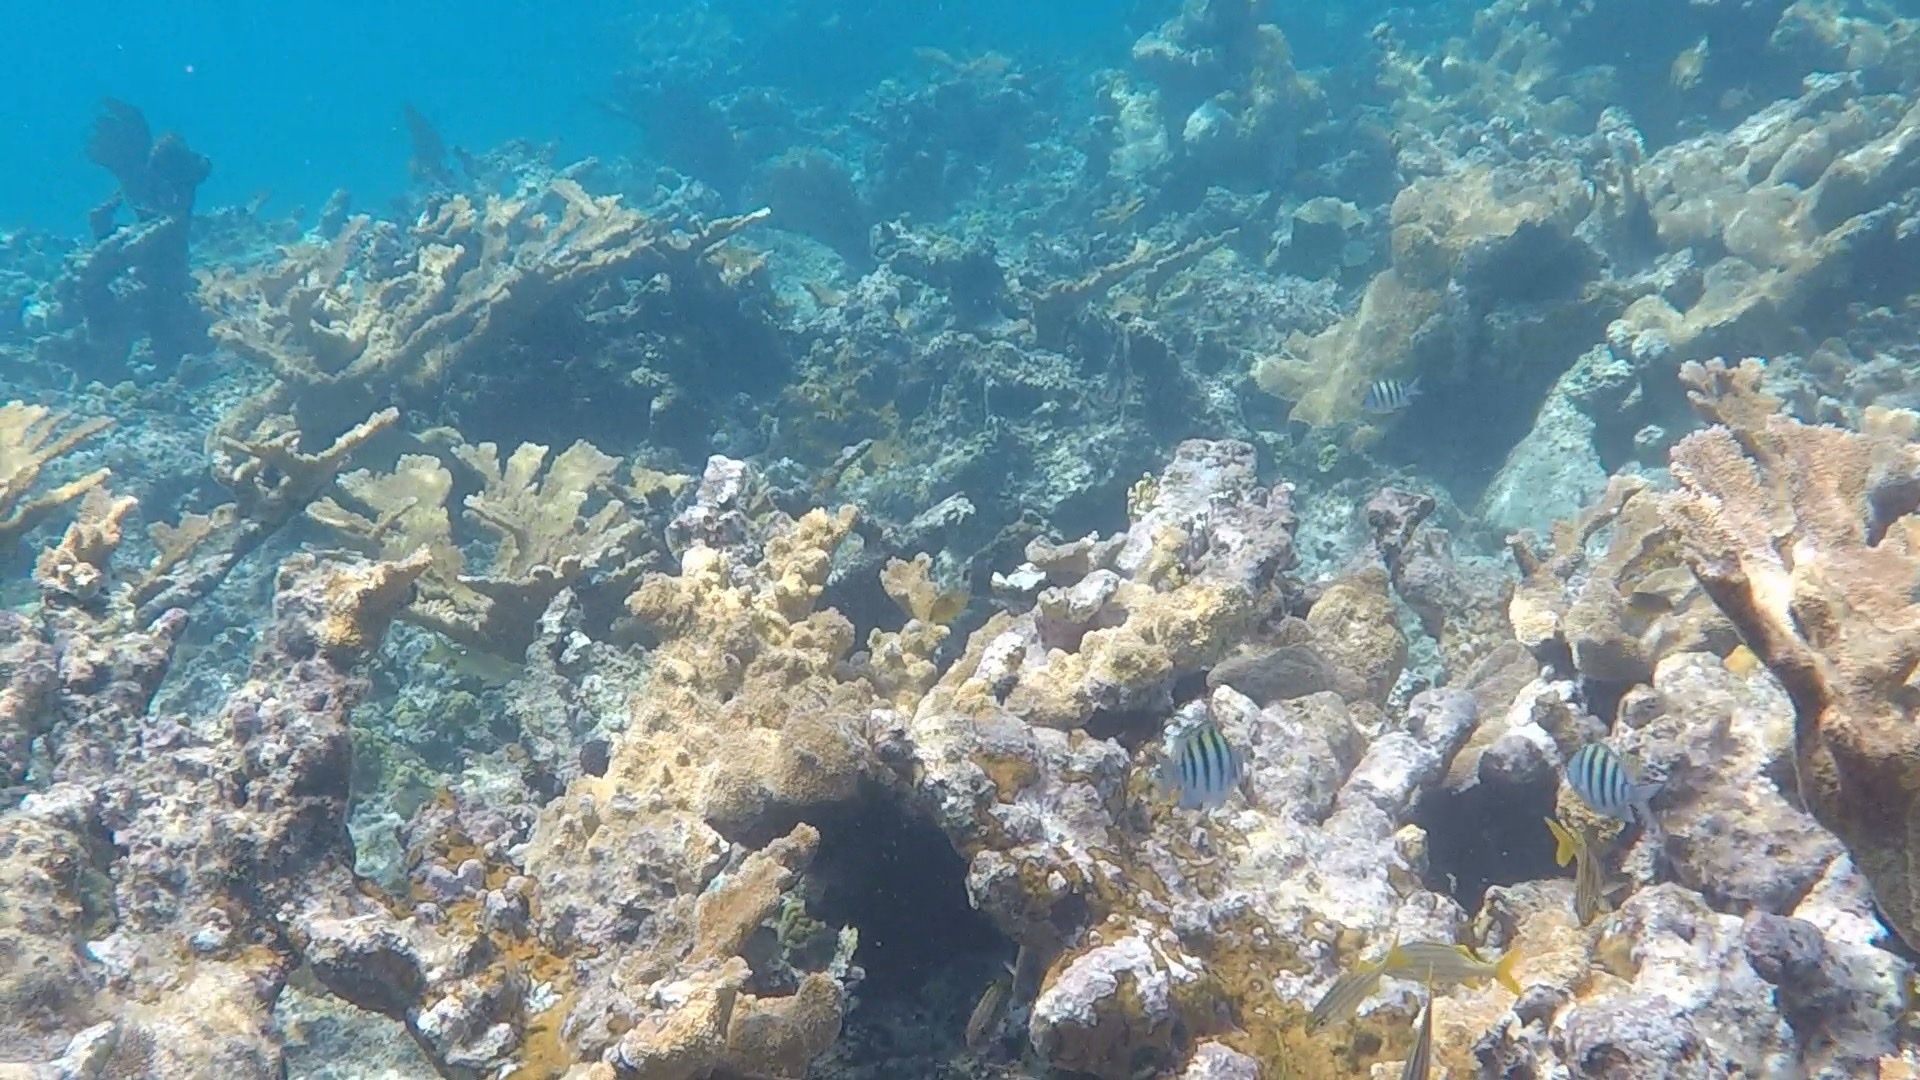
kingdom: Animalia
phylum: Cnidaria
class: Anthozoa
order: Scleractinia
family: Acroporidae
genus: Acropora
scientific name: Acropora palmata
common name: Elkhorn coral
